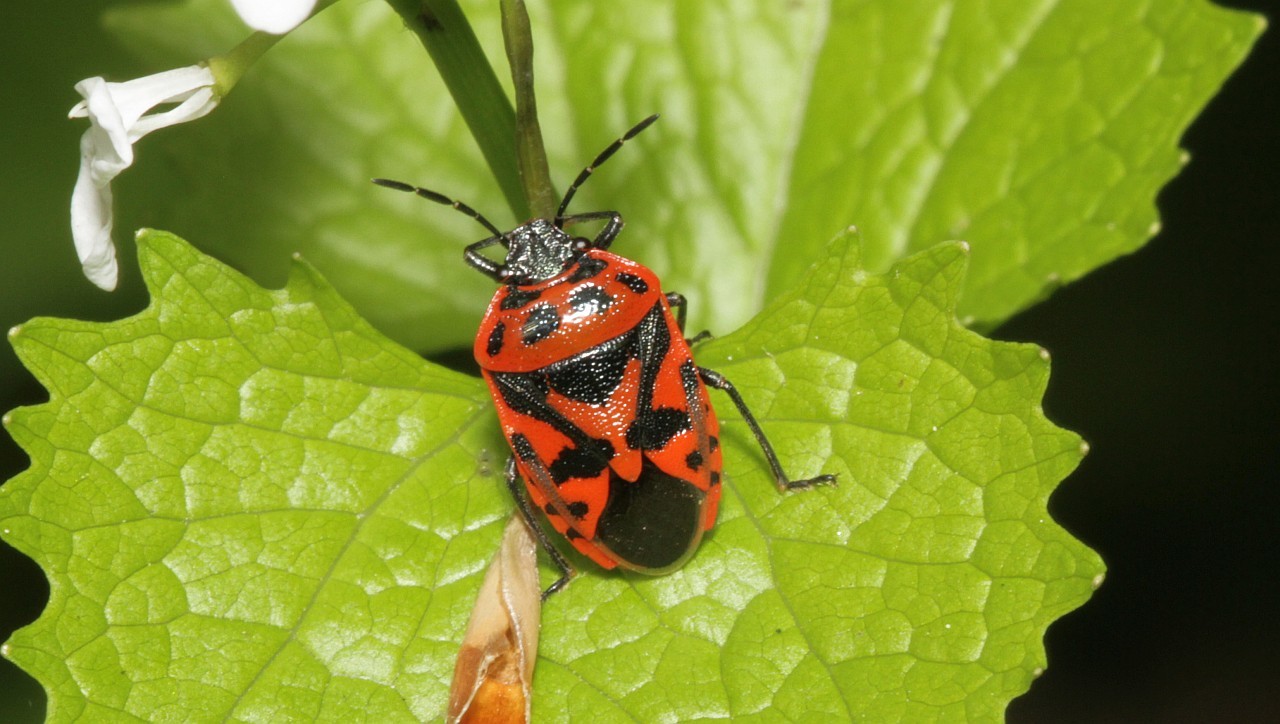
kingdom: Animalia
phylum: Arthropoda
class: Insecta
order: Hemiptera
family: Pentatomidae
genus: Eurydema
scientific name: Eurydema ornata
